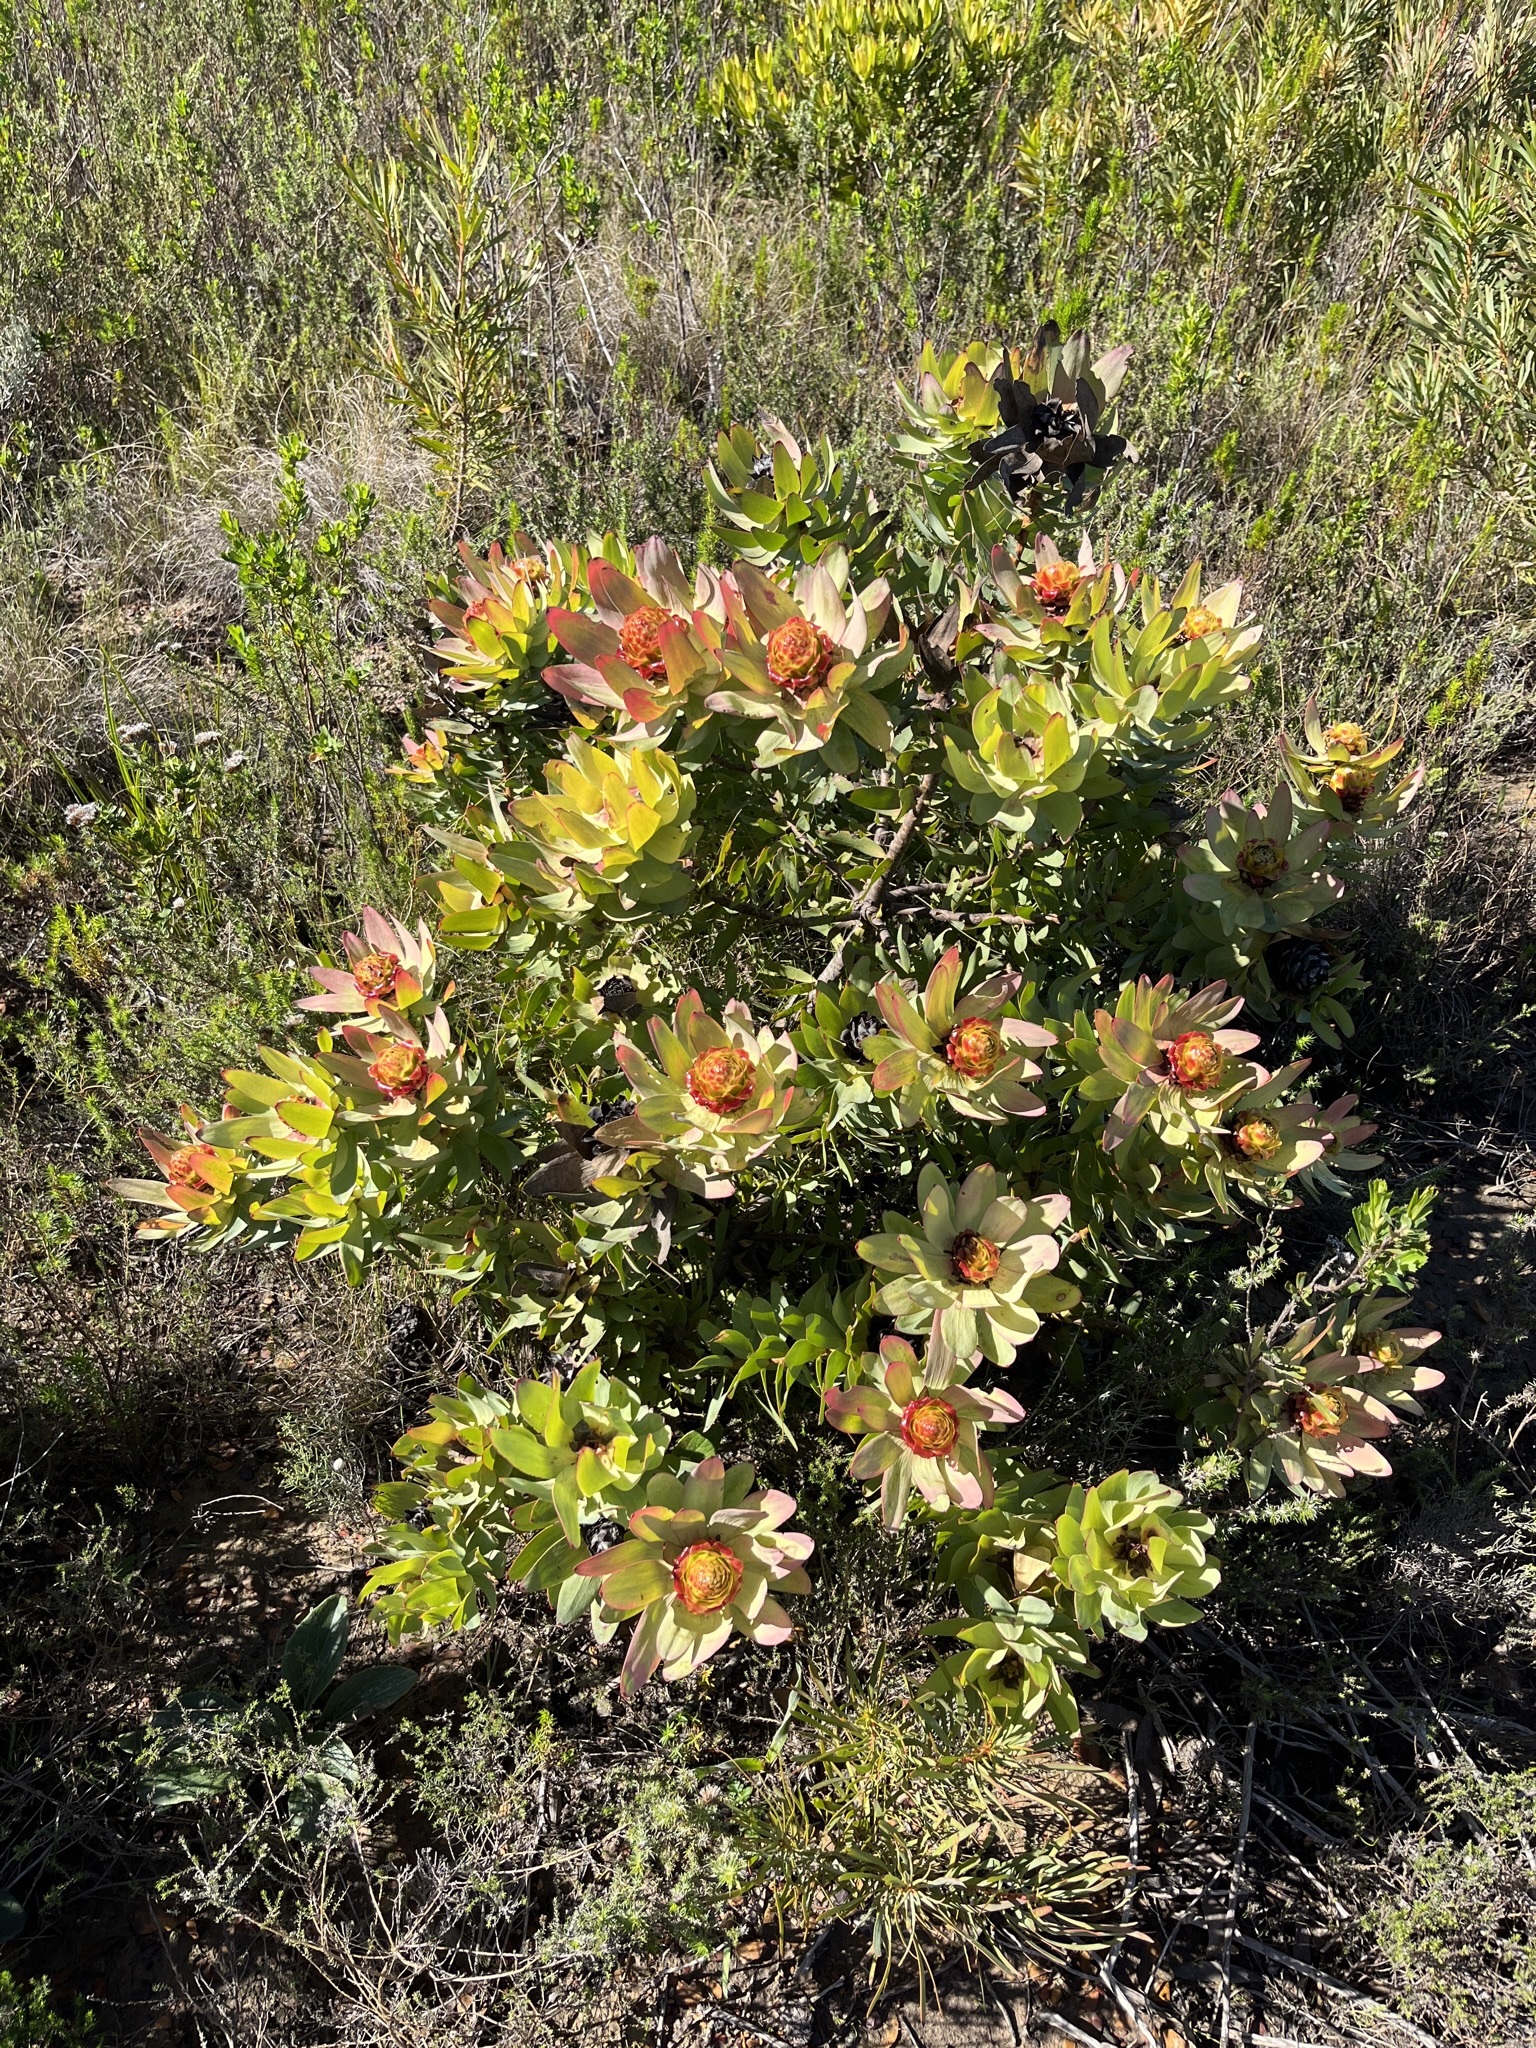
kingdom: Plantae
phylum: Tracheophyta
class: Magnoliopsida
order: Proteales
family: Proteaceae
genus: Leucadendron
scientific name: Leucadendron tinctum
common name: Spicy conebush
